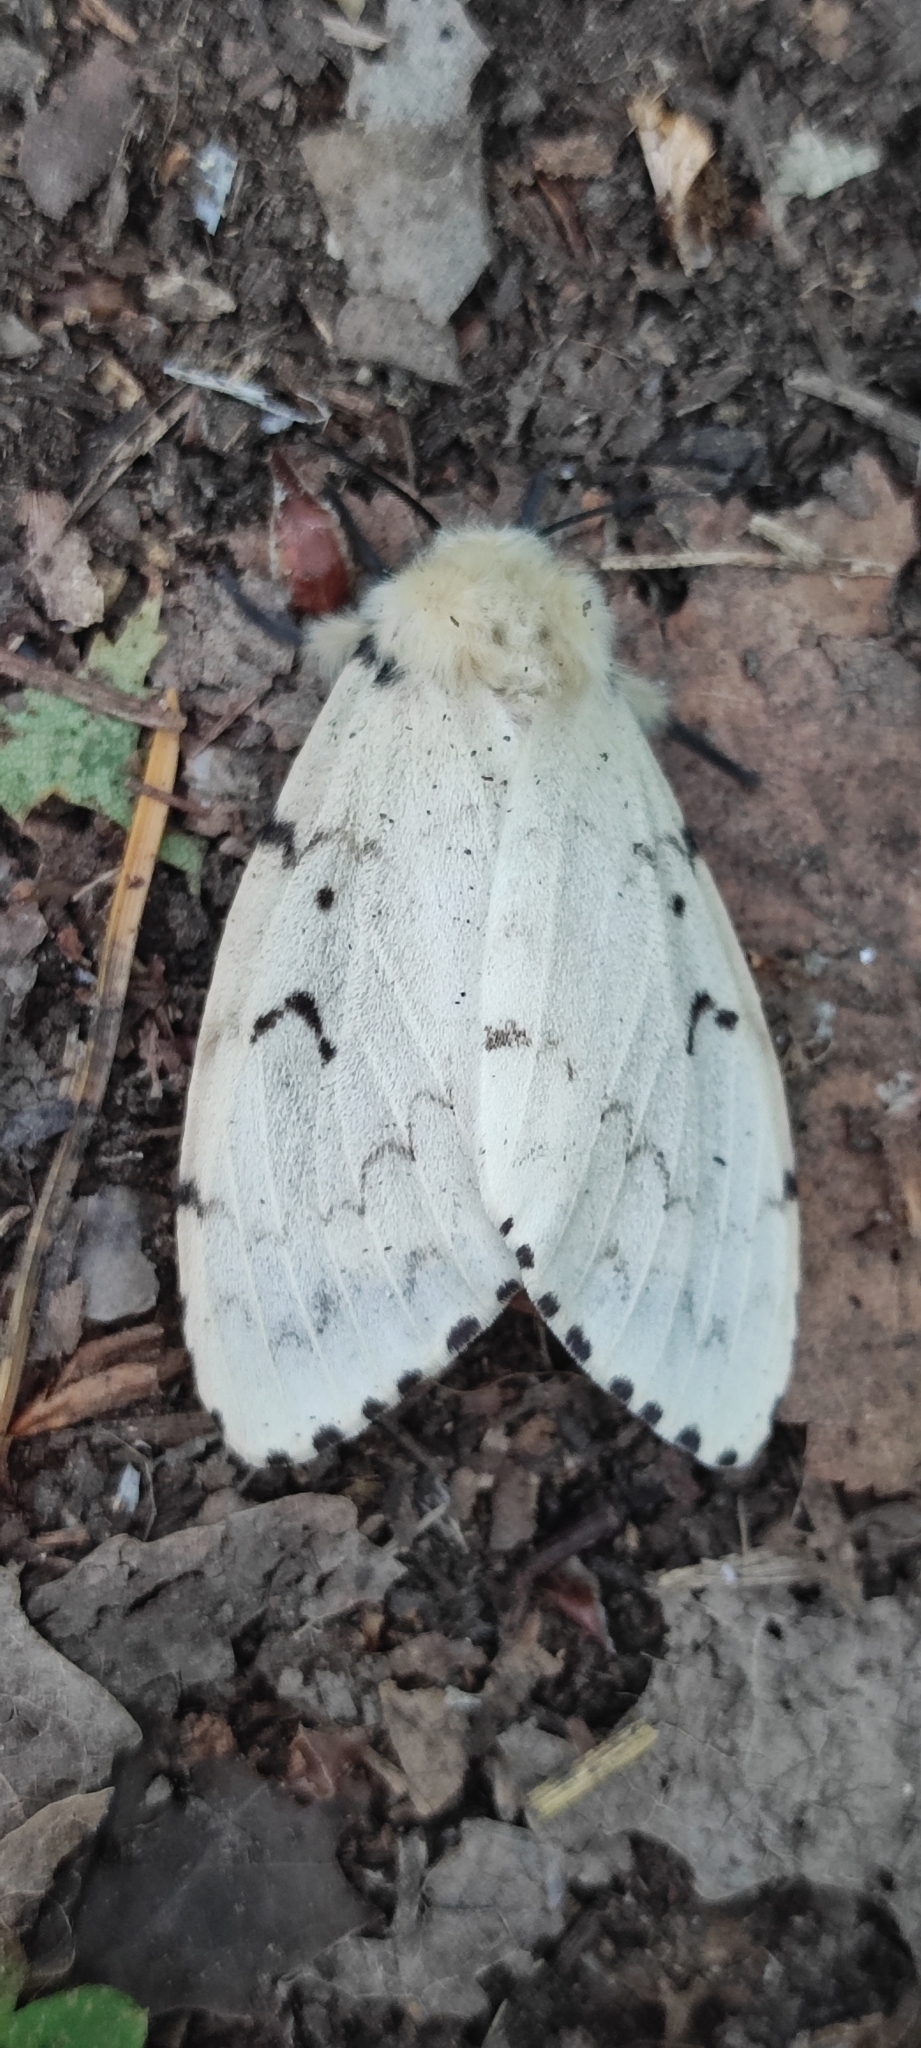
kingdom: Animalia
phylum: Arthropoda
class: Insecta
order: Lepidoptera
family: Erebidae
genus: Lymantria
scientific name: Lymantria dispar
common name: Gypsy moth
